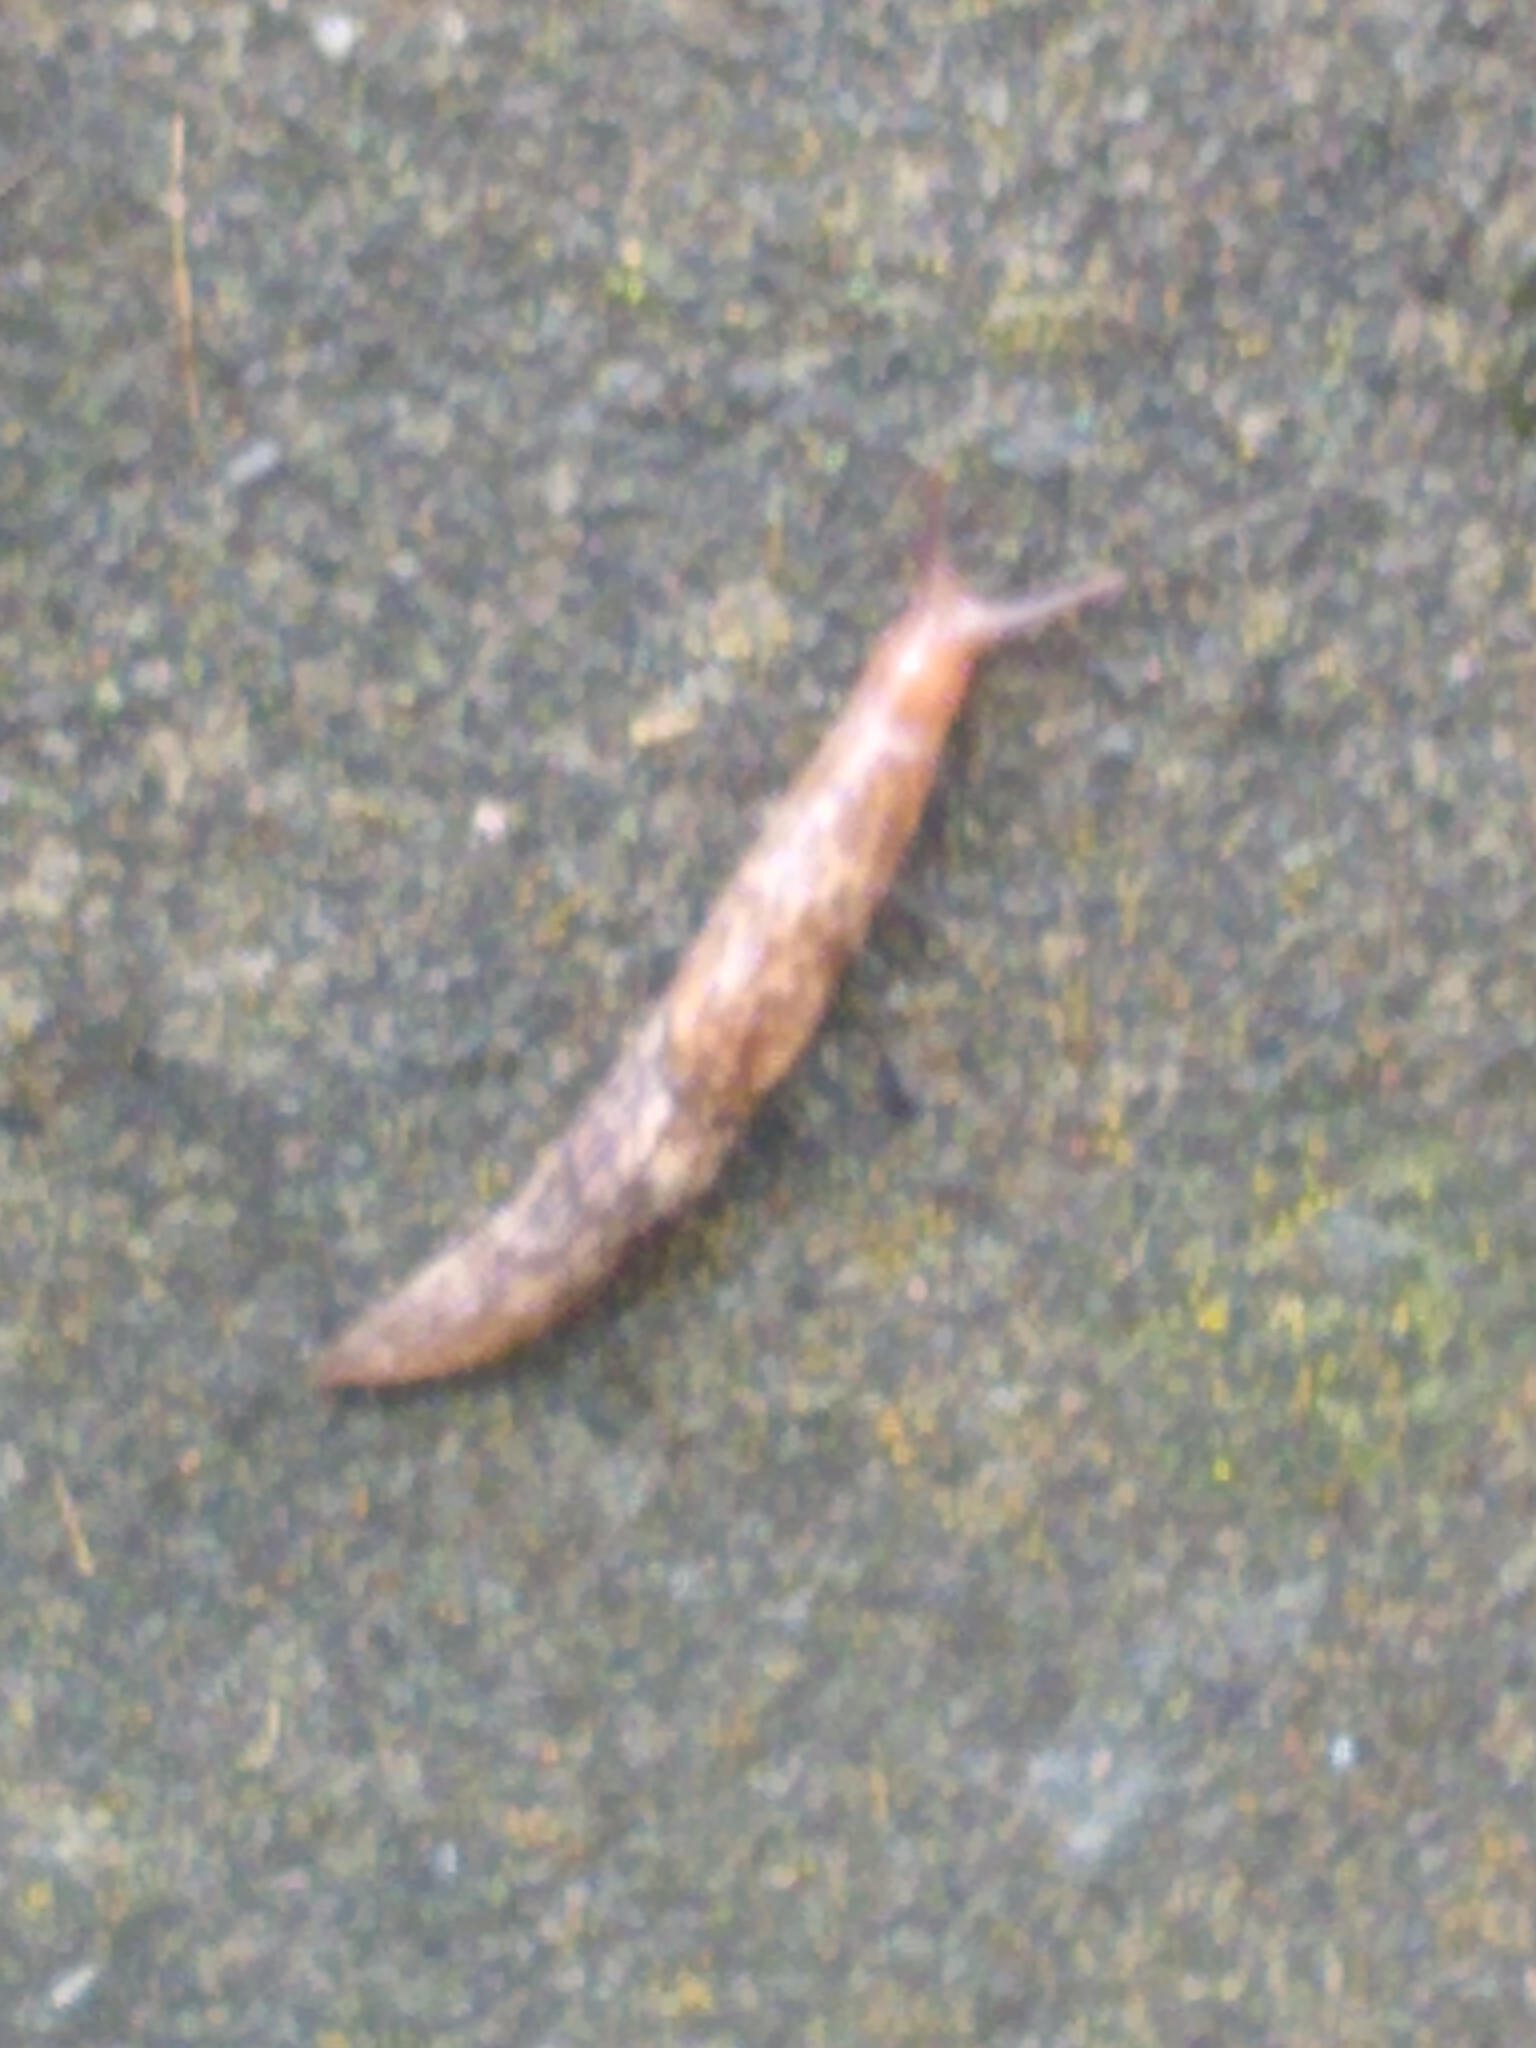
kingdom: Animalia
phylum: Mollusca
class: Gastropoda
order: Stylommatophora
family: Agriolimacidae
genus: Deroceras
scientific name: Deroceras reticulatum
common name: Gray field slug
